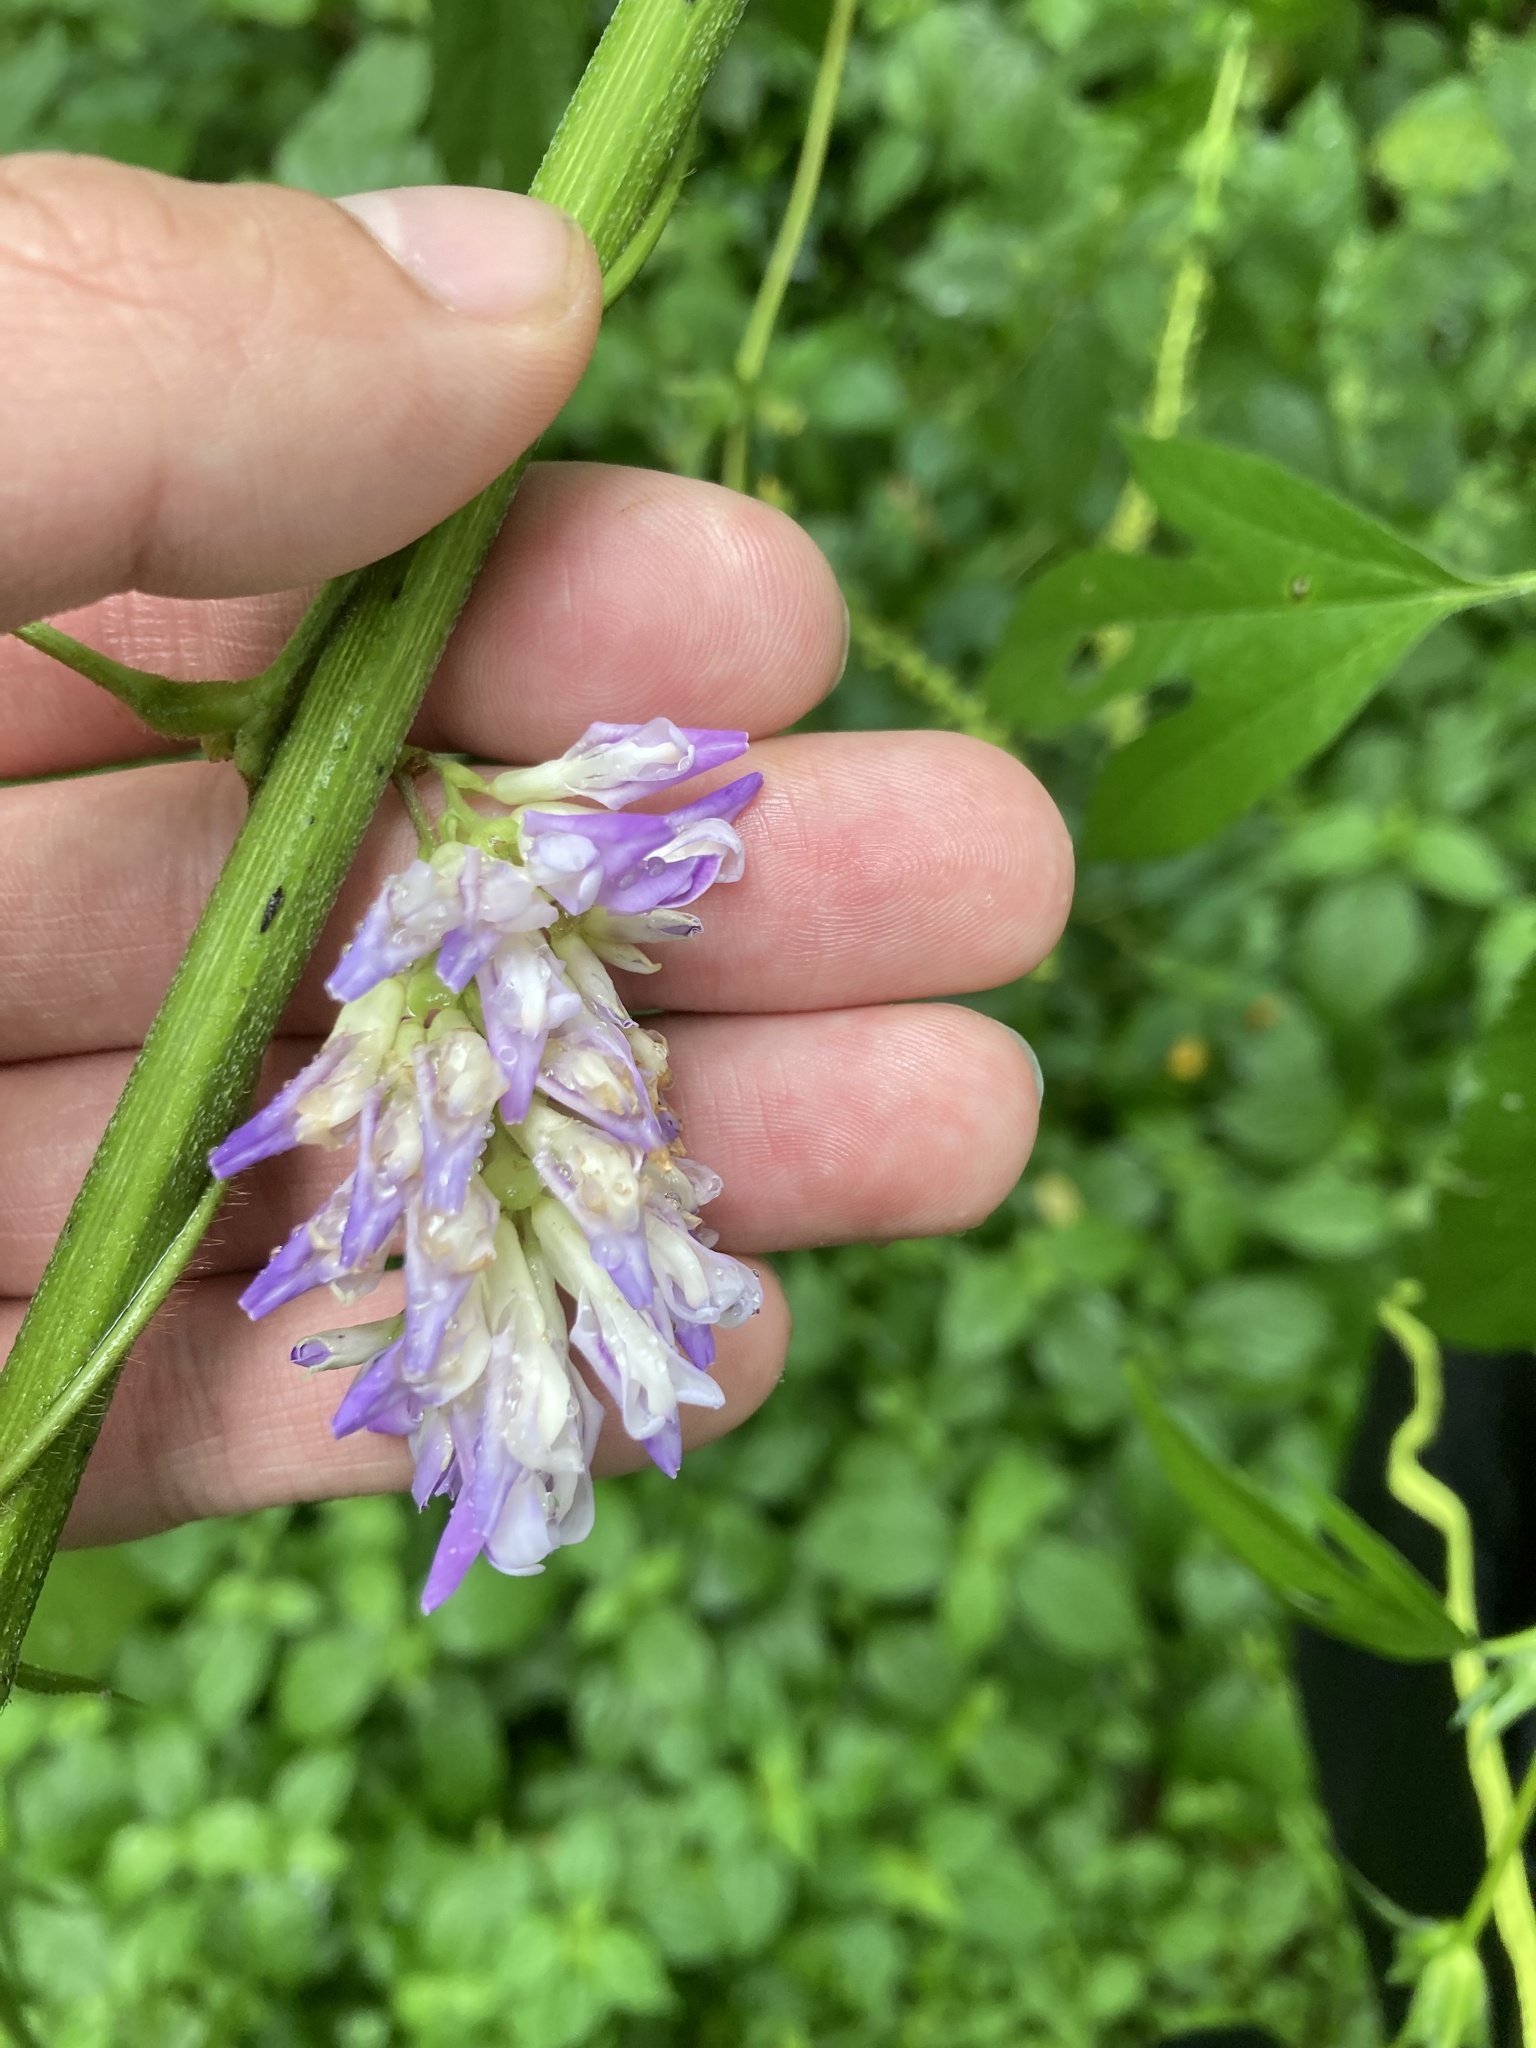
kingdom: Plantae
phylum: Tracheophyta
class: Magnoliopsida
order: Fabales
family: Fabaceae
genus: Amphicarpaea
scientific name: Amphicarpaea bracteata
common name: American hog peanut
